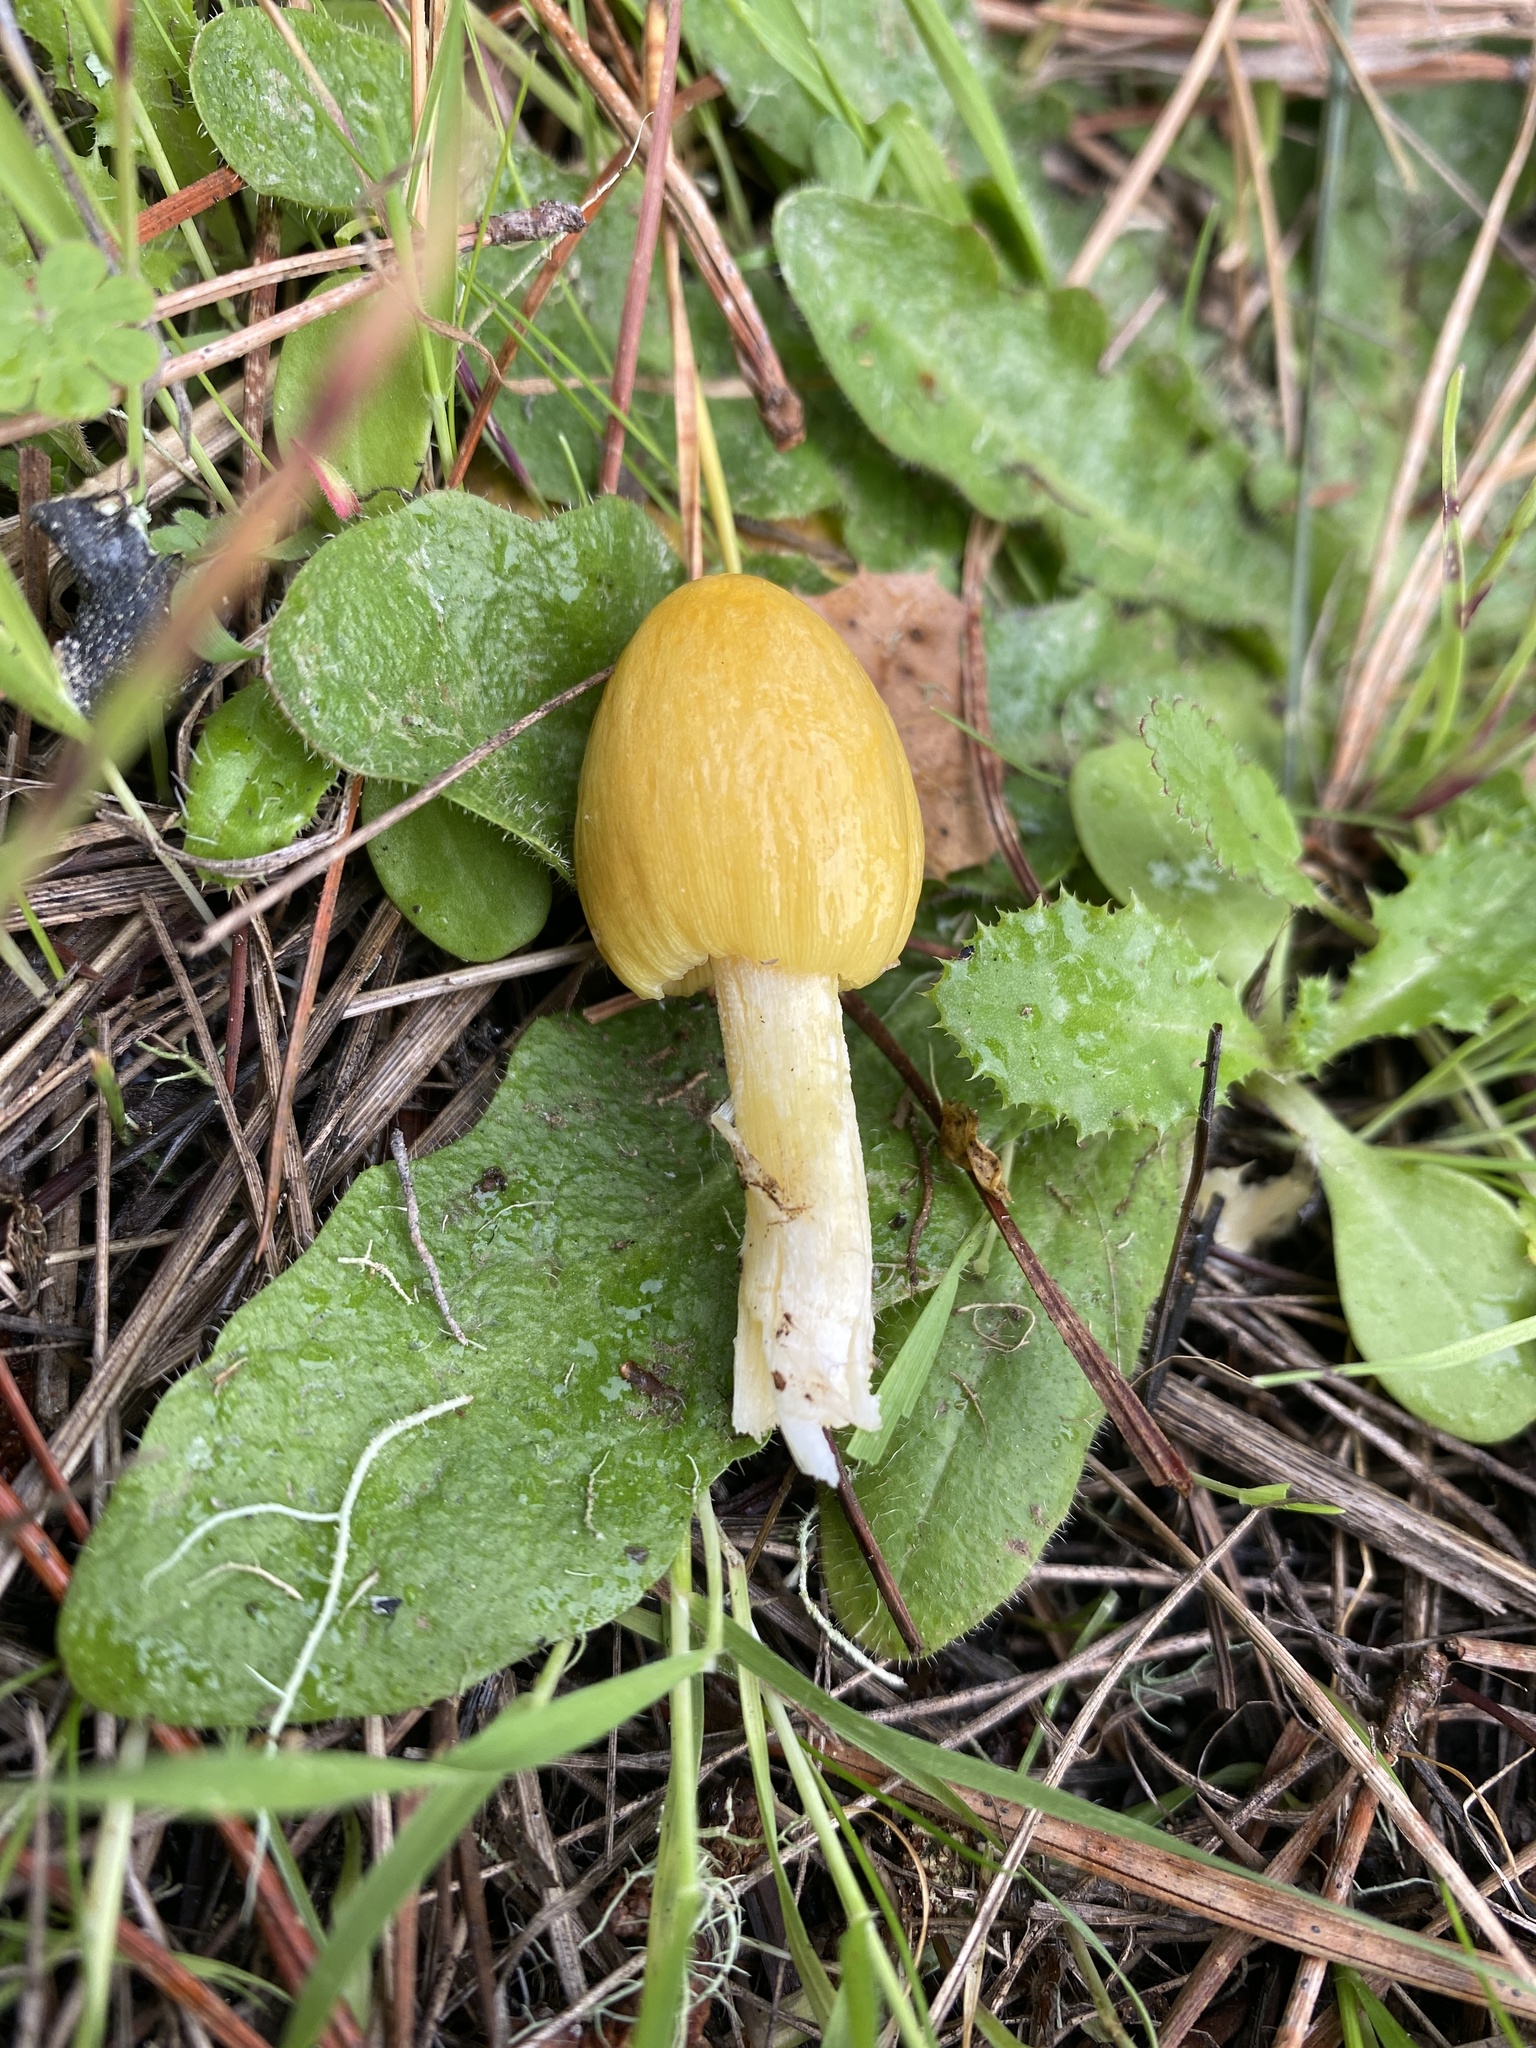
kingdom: Fungi
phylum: Basidiomycota
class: Agaricomycetes
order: Agaricales
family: Bolbitiaceae
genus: Bolbitius
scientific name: Bolbitius titubans
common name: Yellow fieldcap
